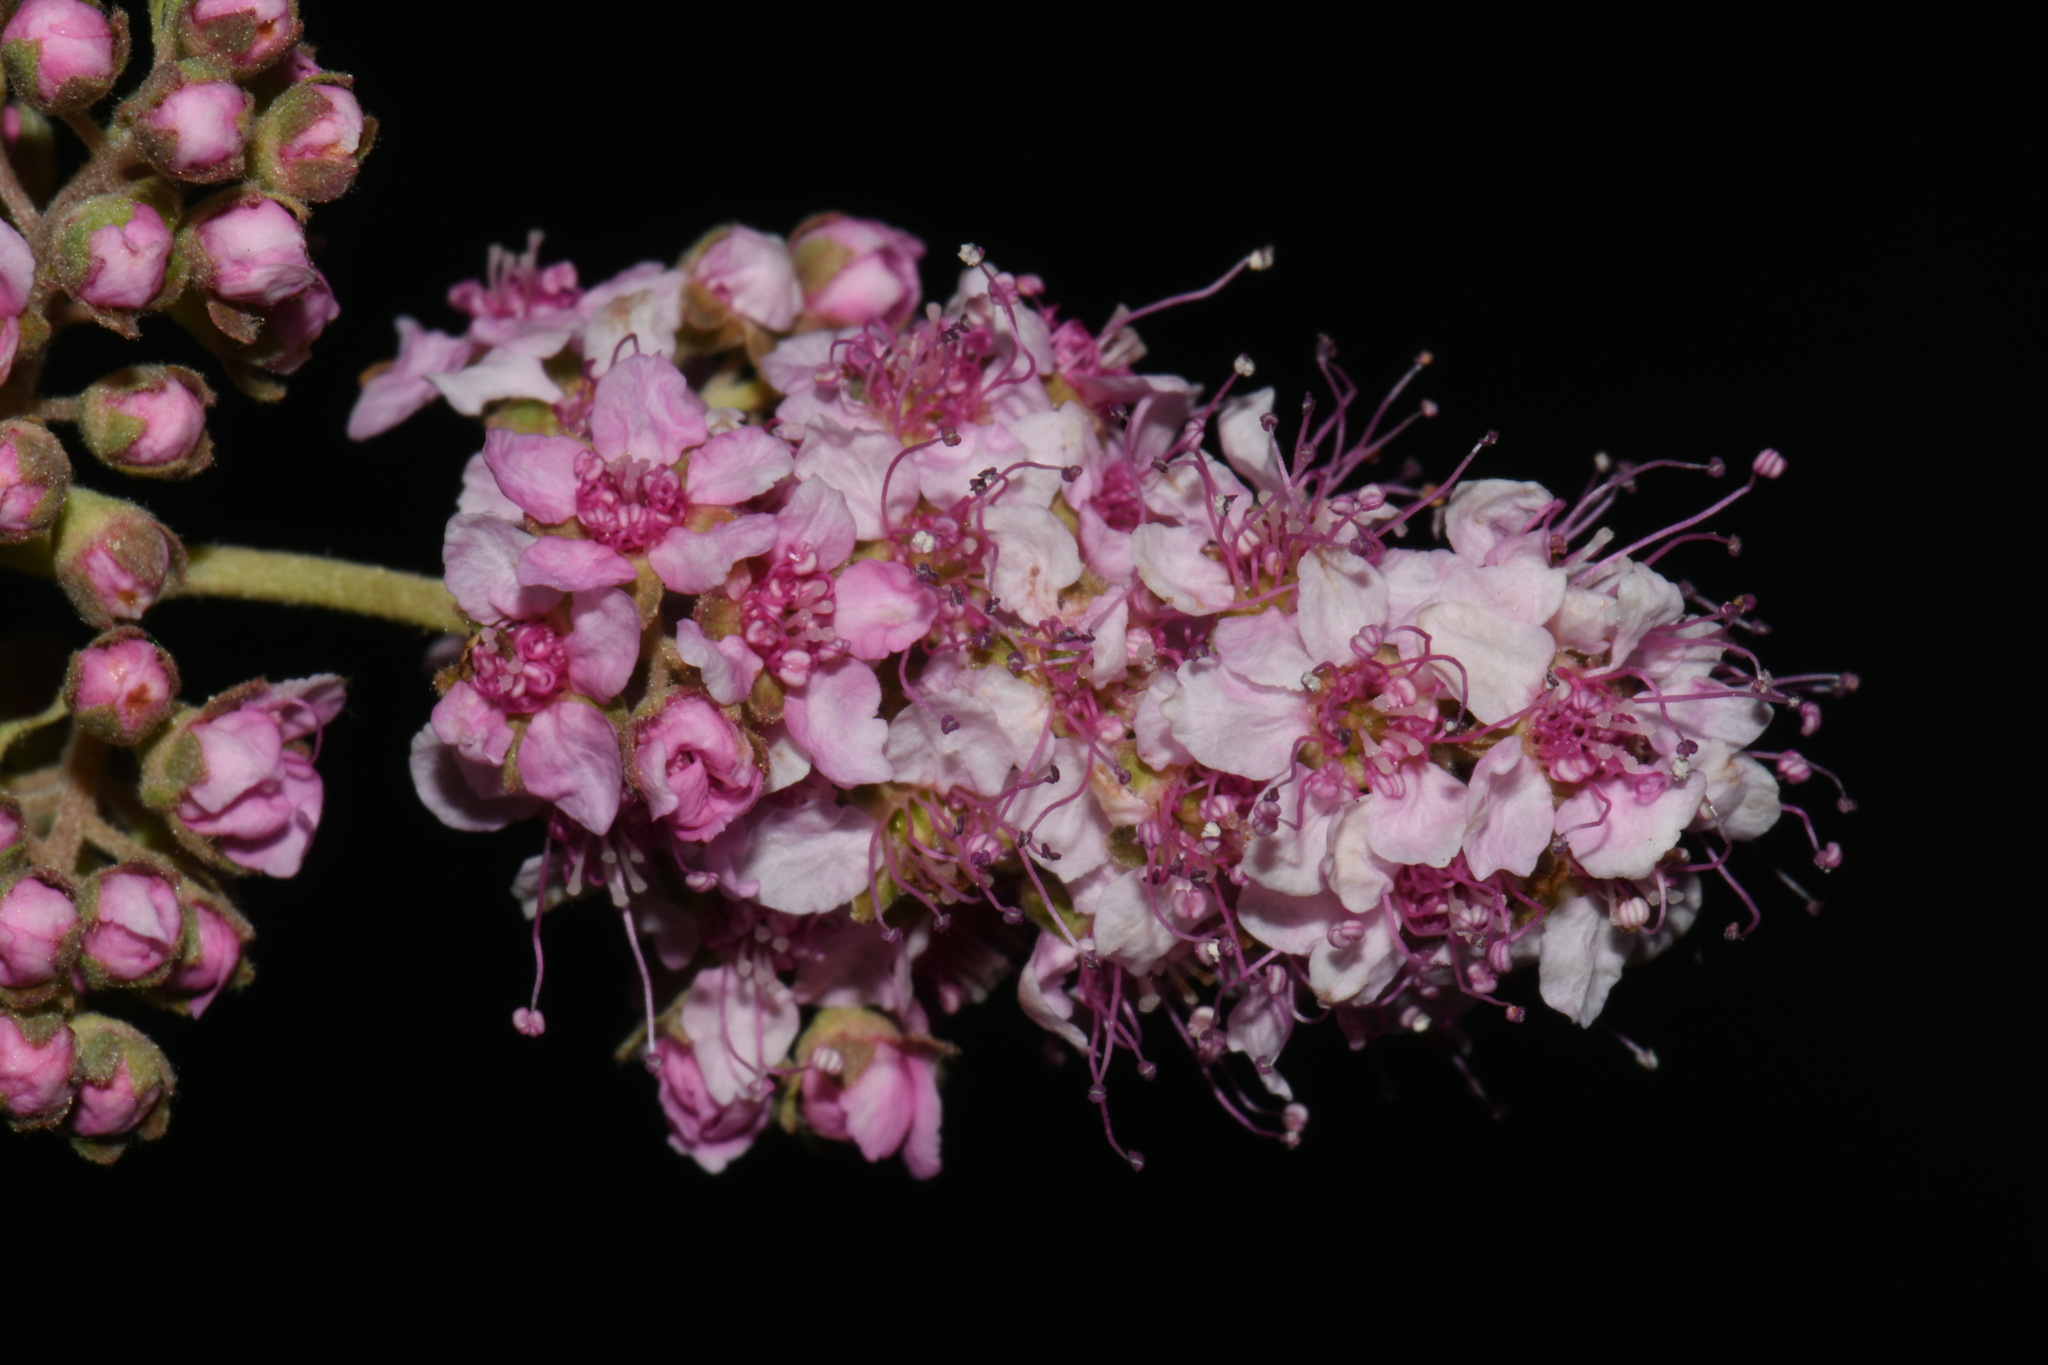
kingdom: Plantae
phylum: Tracheophyta
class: Magnoliopsida
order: Rosales
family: Rosaceae
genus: Spiraea
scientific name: Spiraea douglasii
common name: Steeplebush
